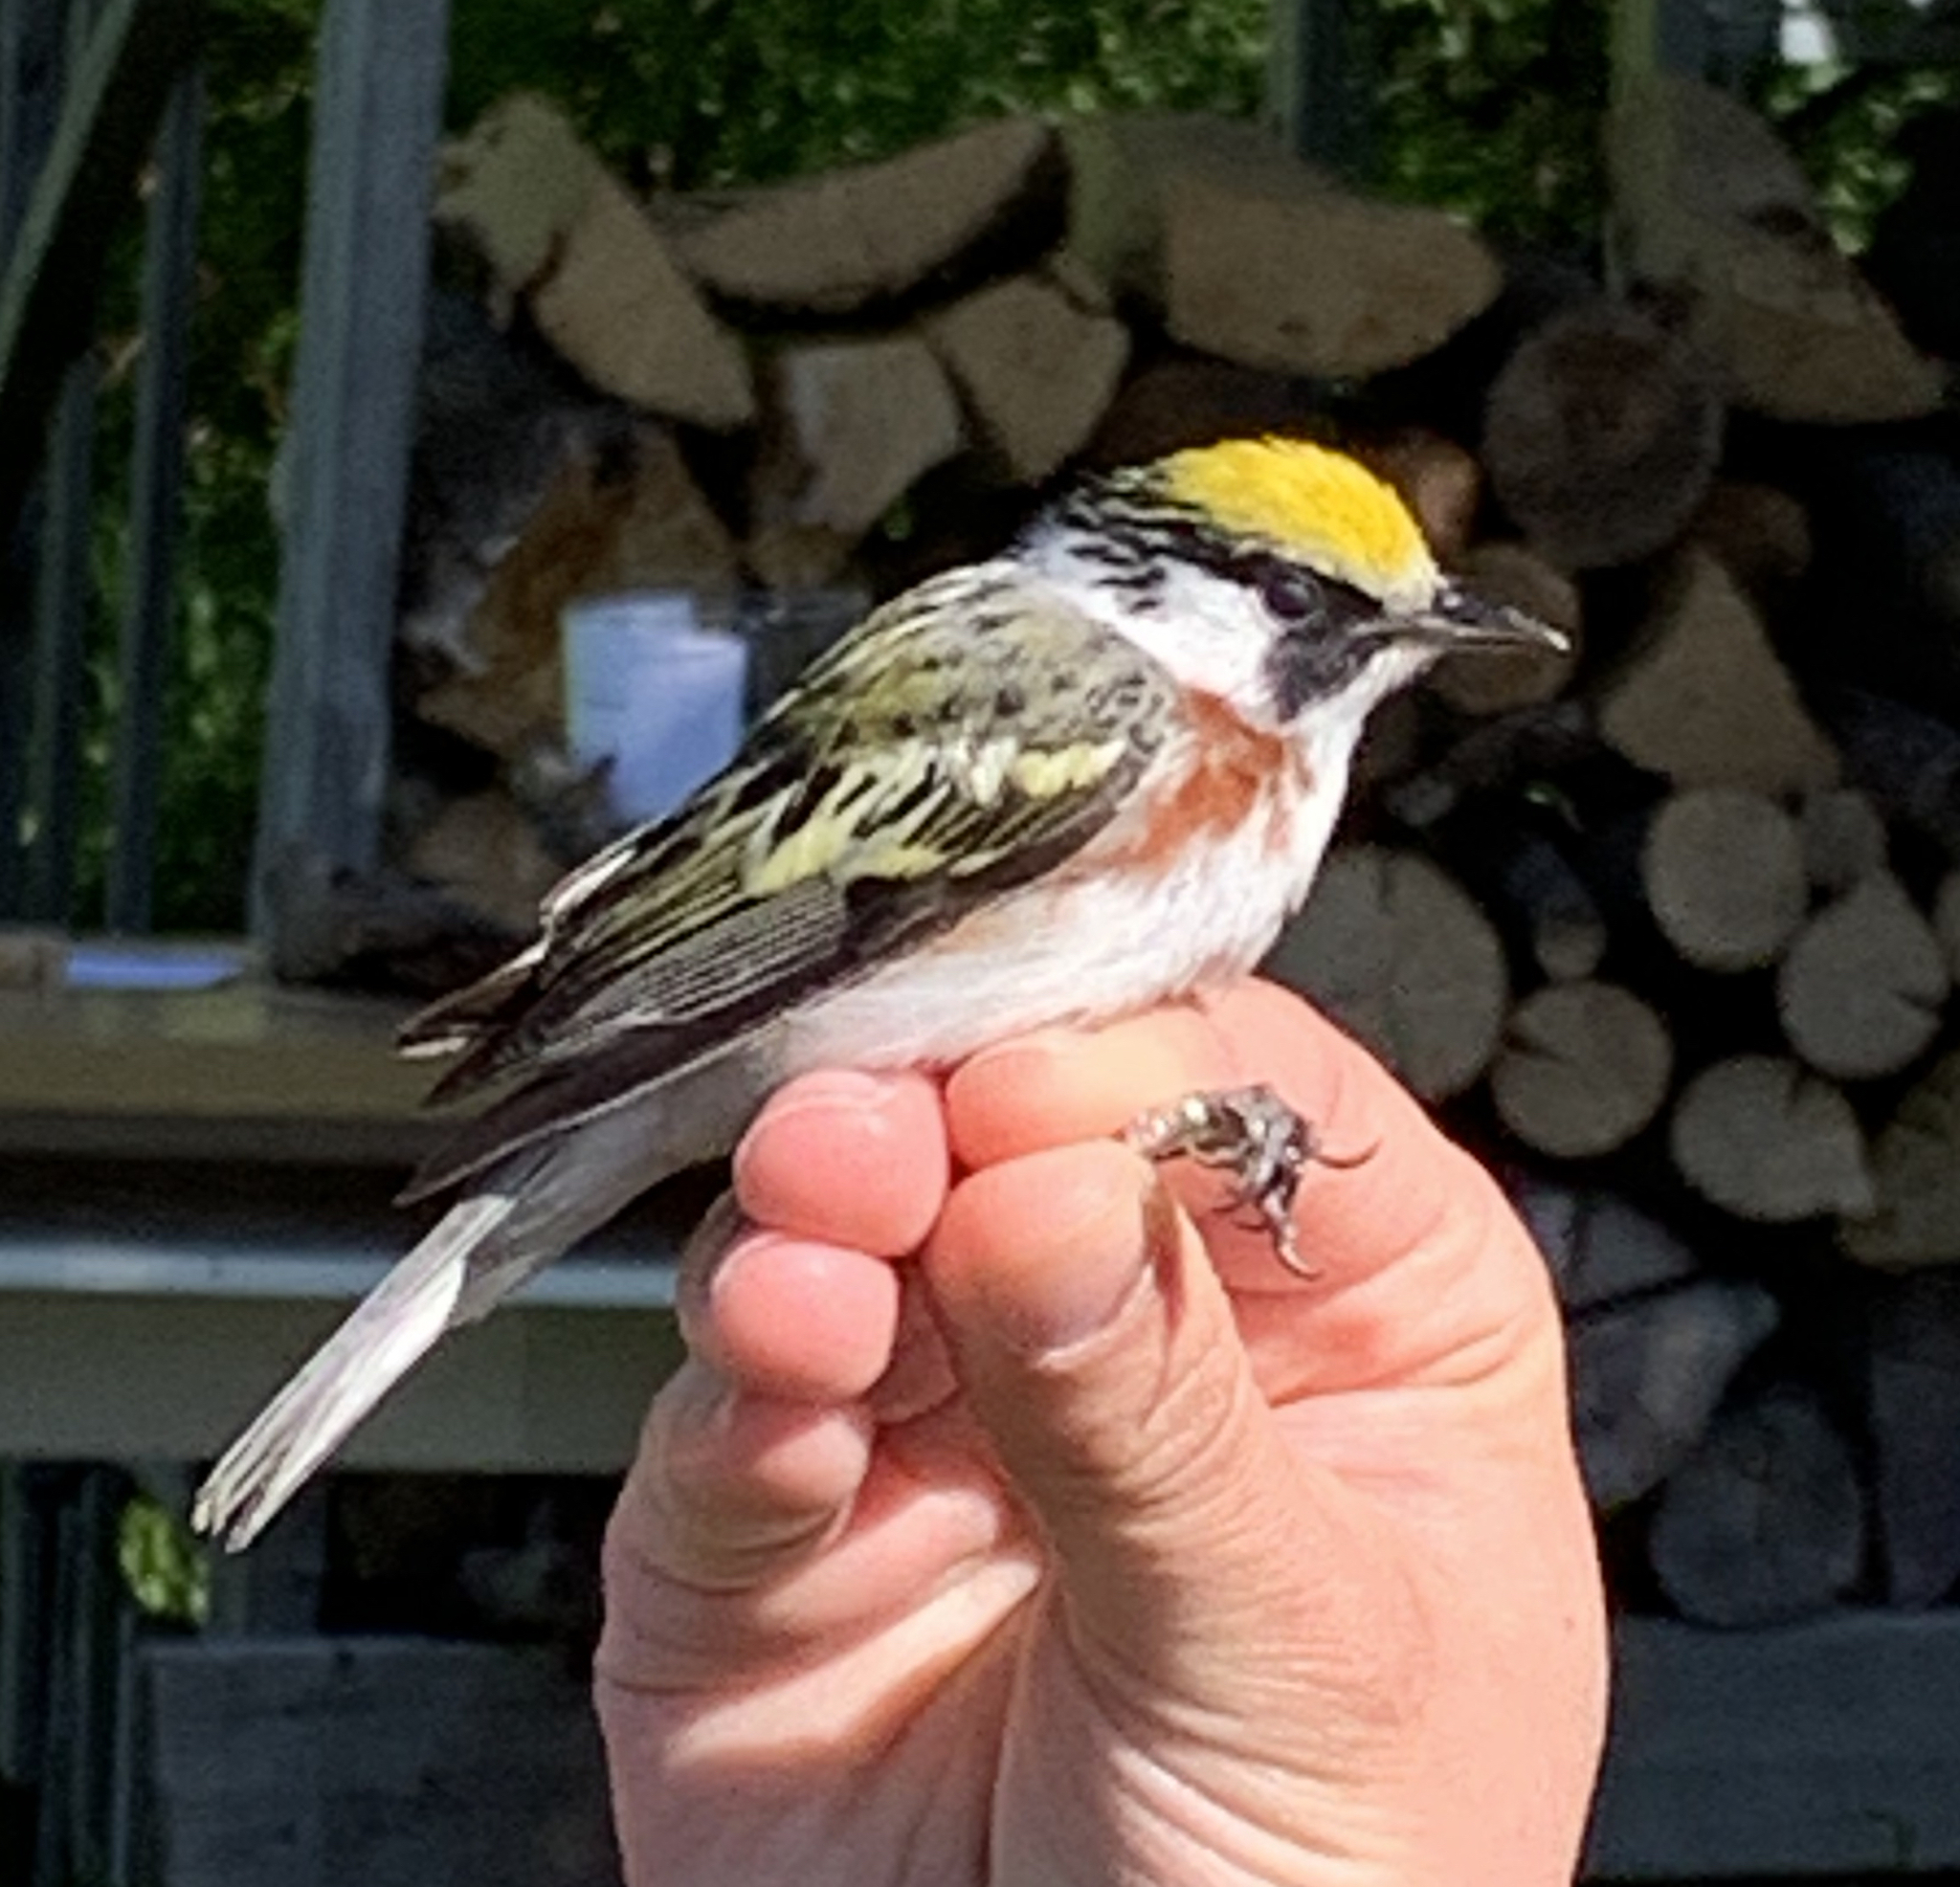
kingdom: Animalia
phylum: Chordata
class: Aves
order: Passeriformes
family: Parulidae
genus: Setophaga
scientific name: Setophaga pensylvanica
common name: Chestnut-sided warbler
